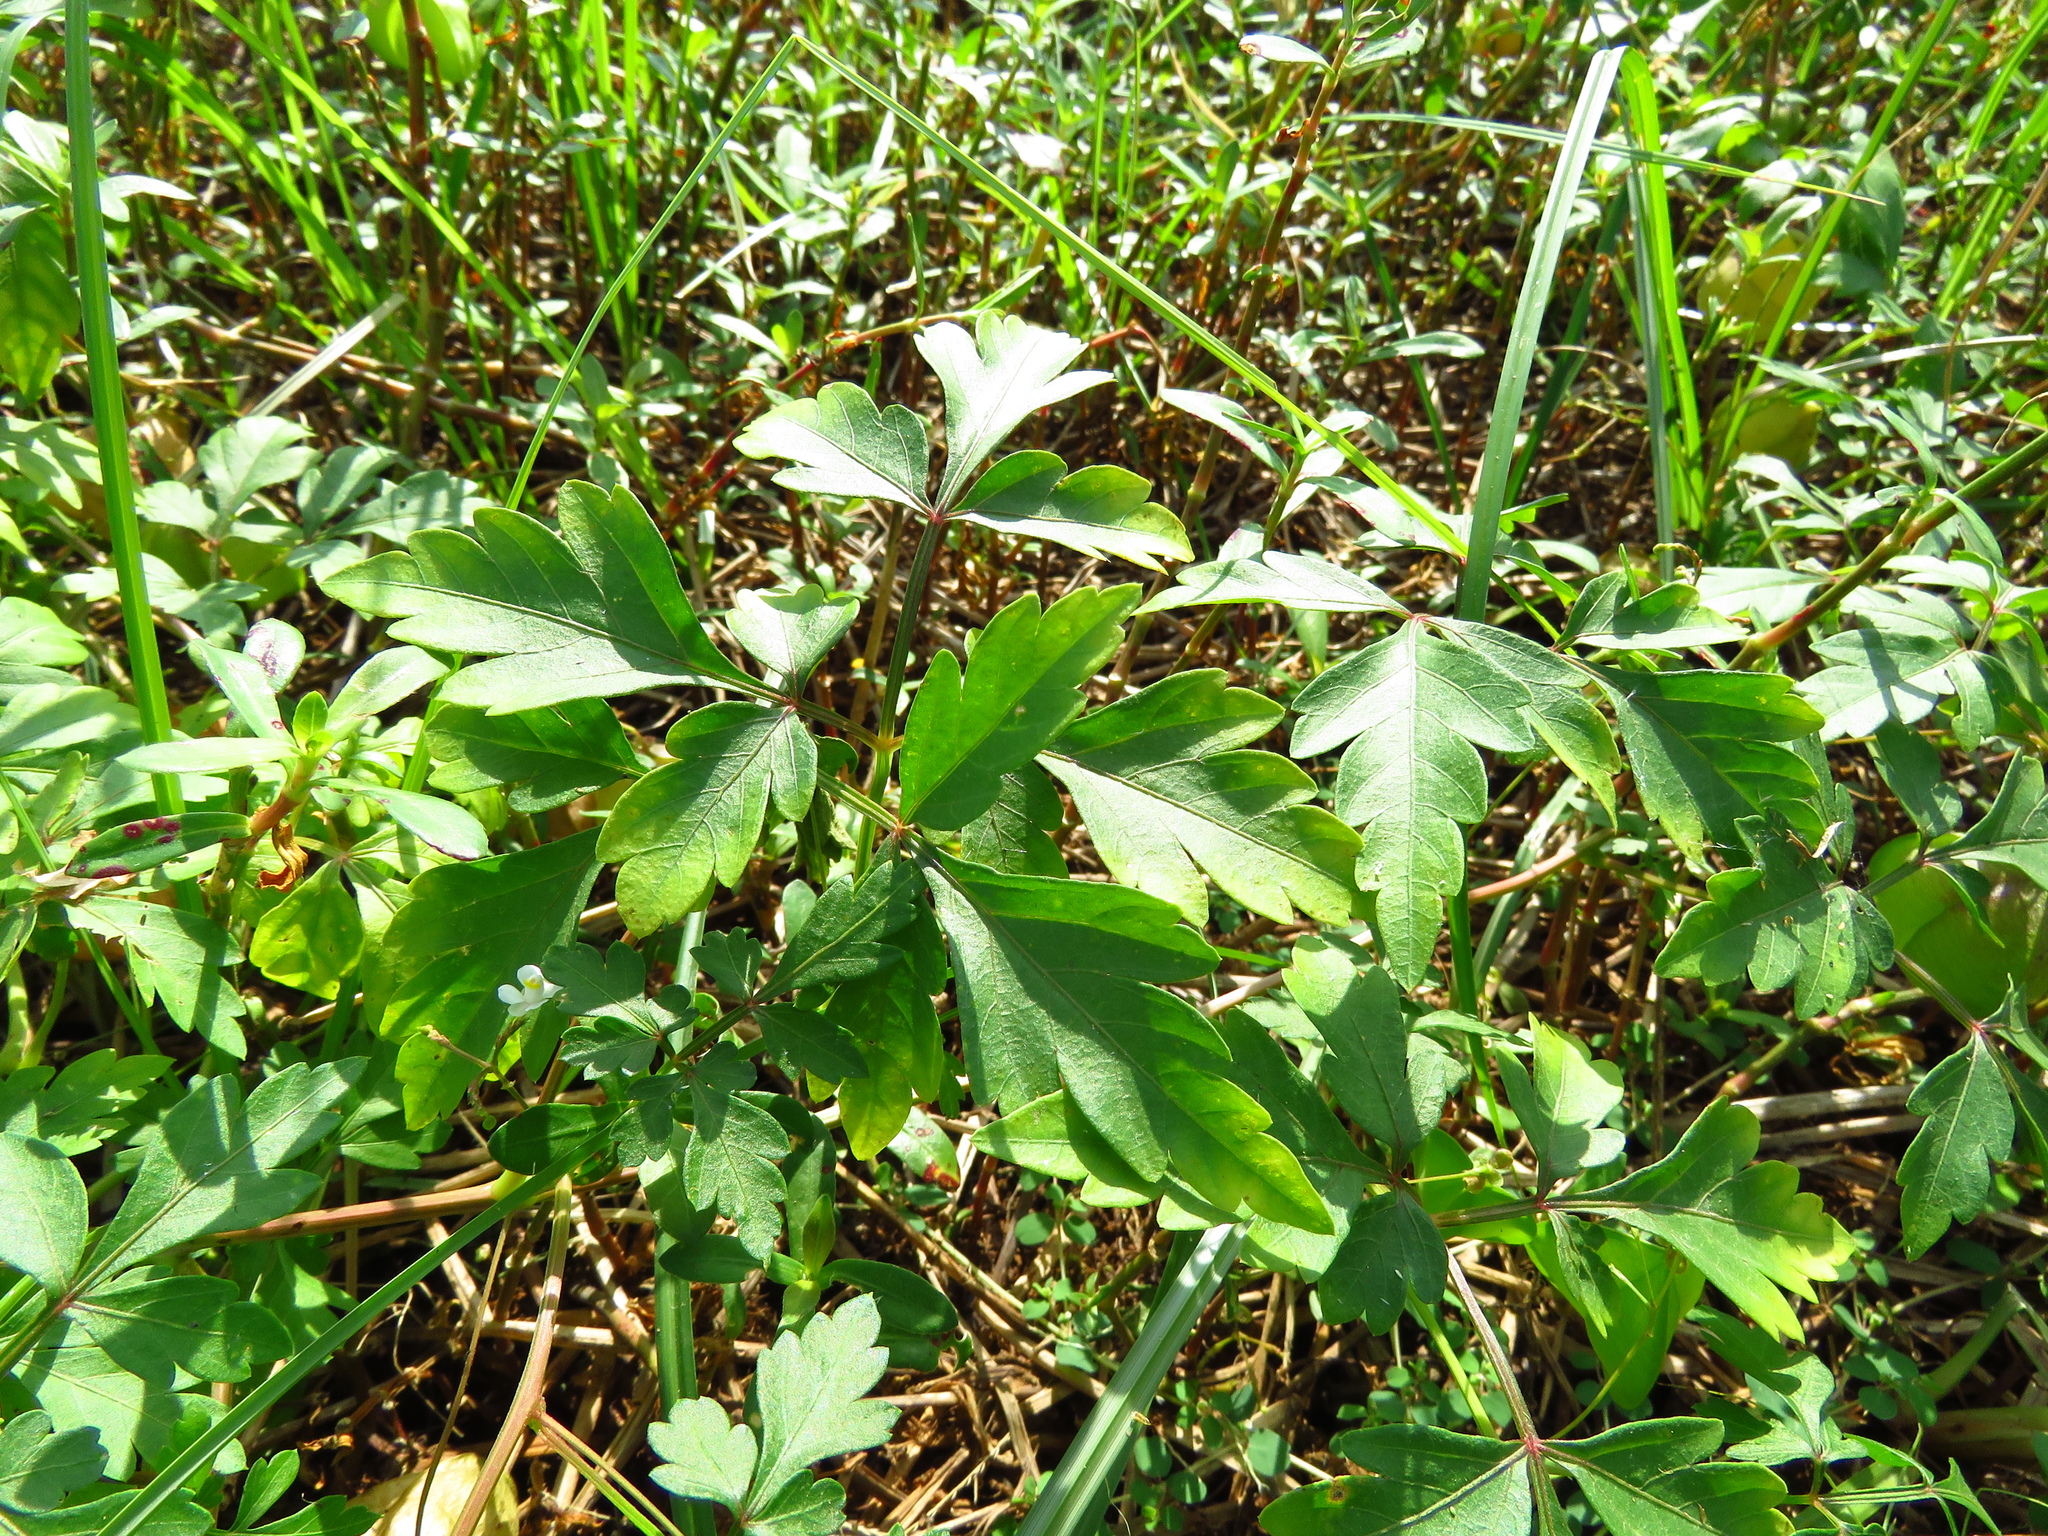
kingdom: Plantae
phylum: Tracheophyta
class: Magnoliopsida
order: Sapindales
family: Sapindaceae
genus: Cardiospermum
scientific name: Cardiospermum halicacabum
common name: Balloon vine
